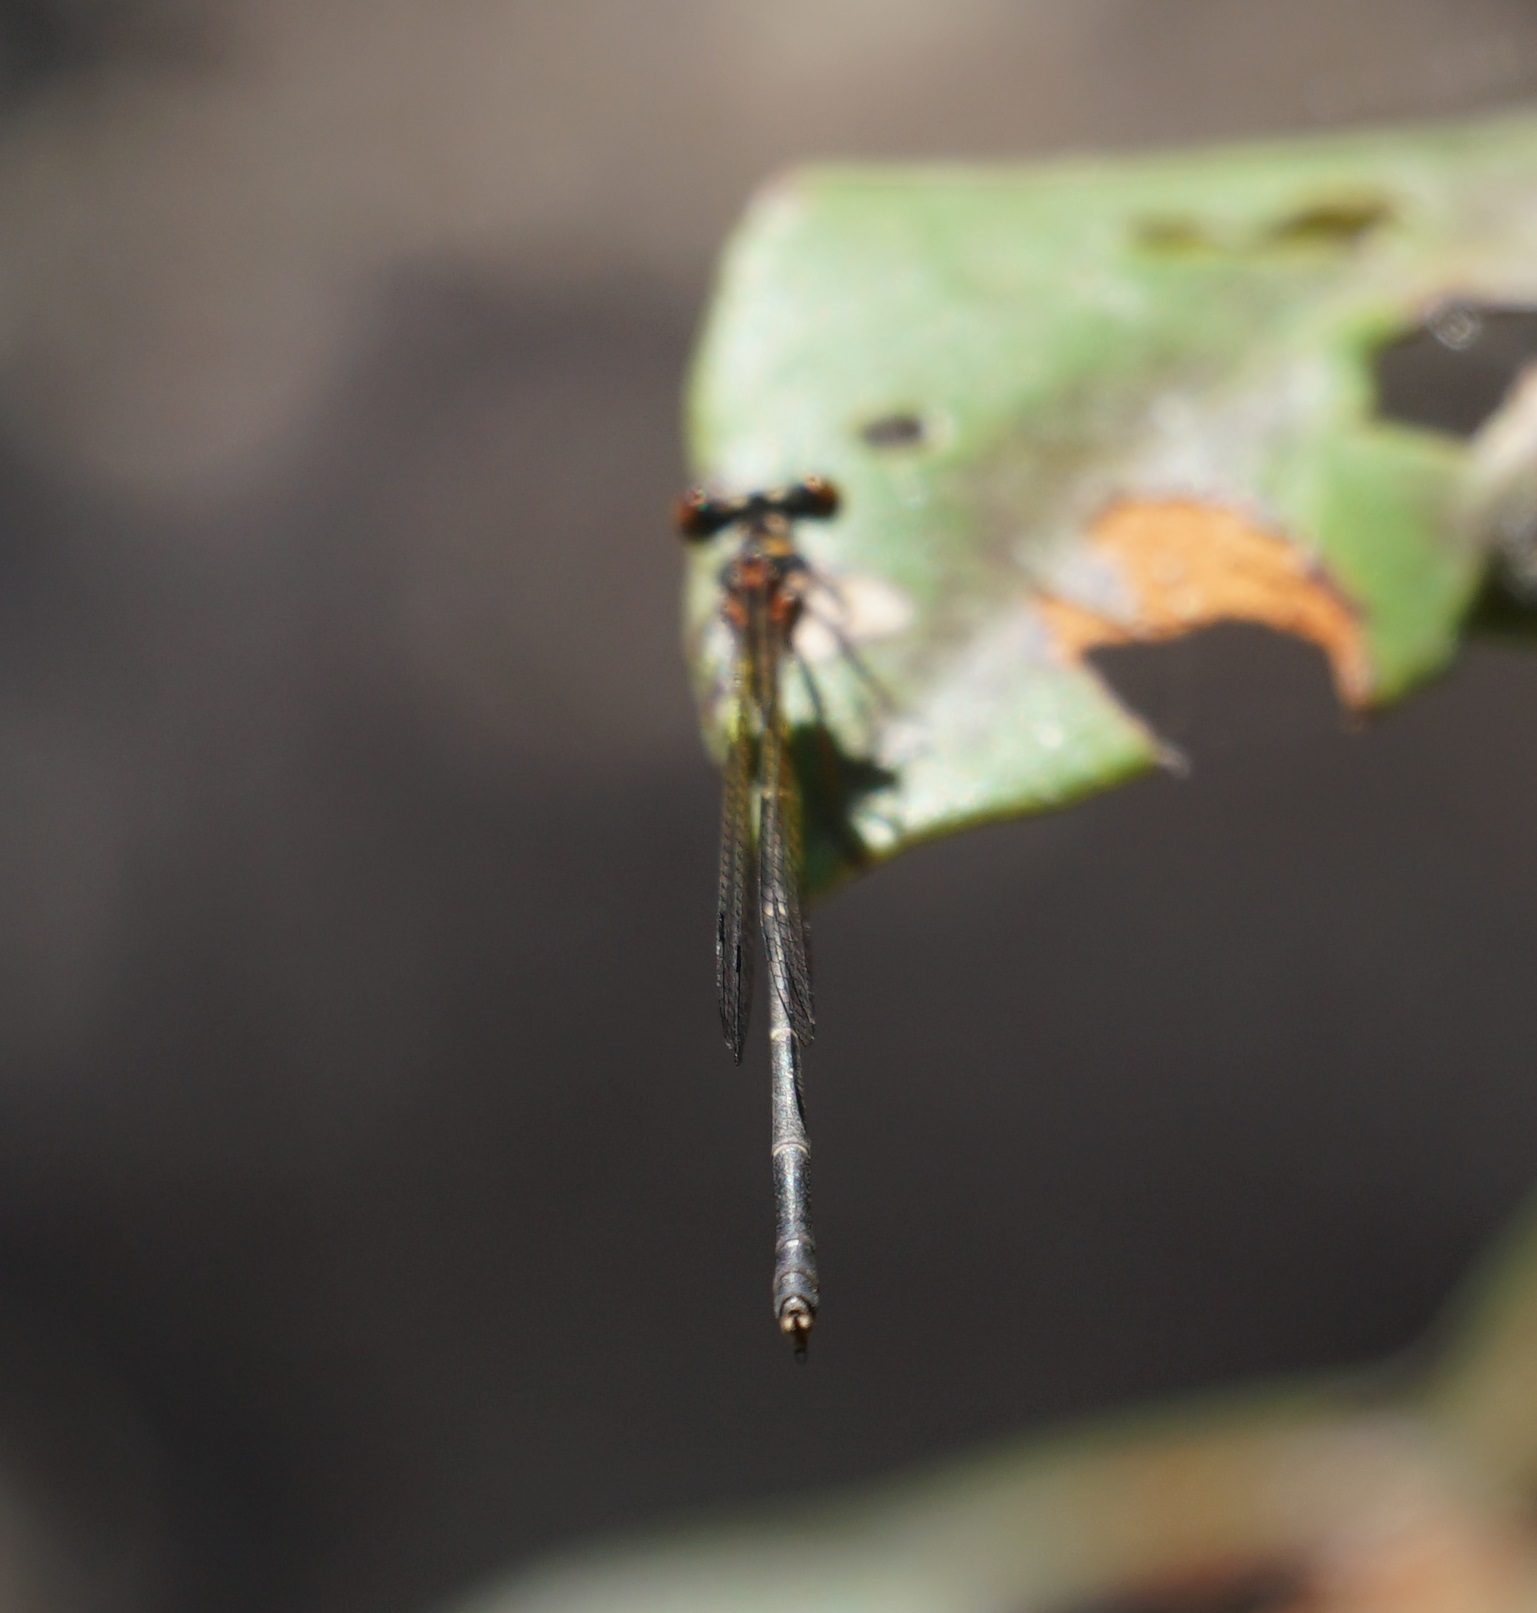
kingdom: Animalia
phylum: Arthropoda
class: Insecta
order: Odonata
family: Platycnemididae
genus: Nososticta
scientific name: Nososticta solida
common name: Orange threadtail
